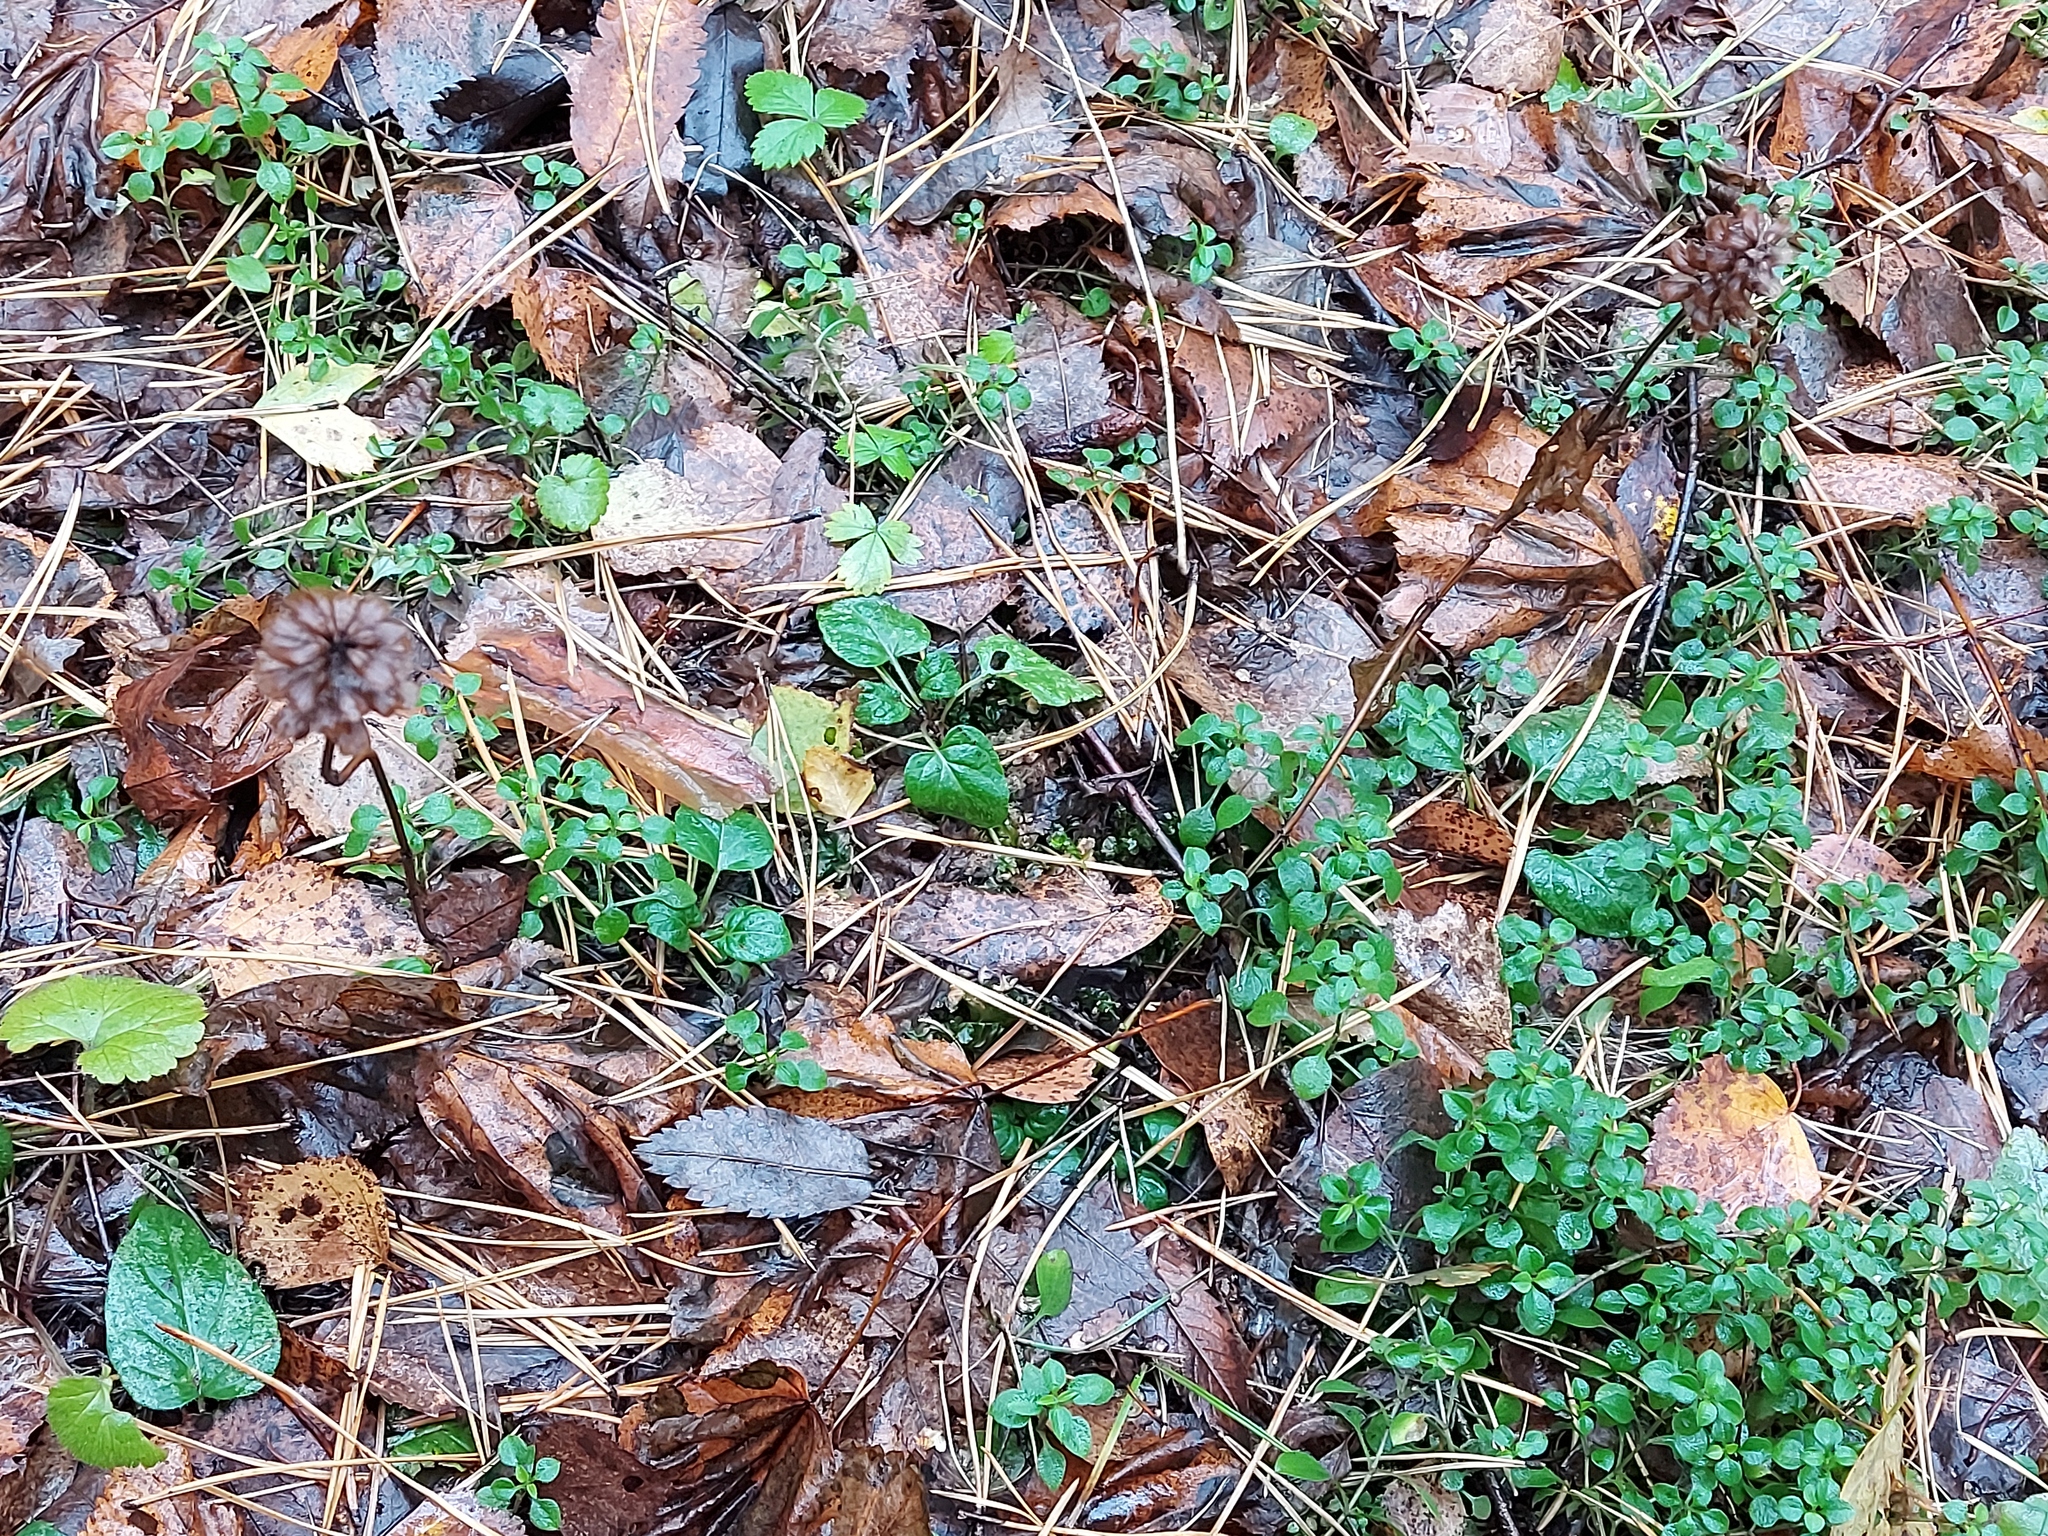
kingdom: Plantae
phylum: Tracheophyta
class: Magnoliopsida
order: Lamiales
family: Lamiaceae
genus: Prunella
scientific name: Prunella vulgaris
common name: Heal-all
